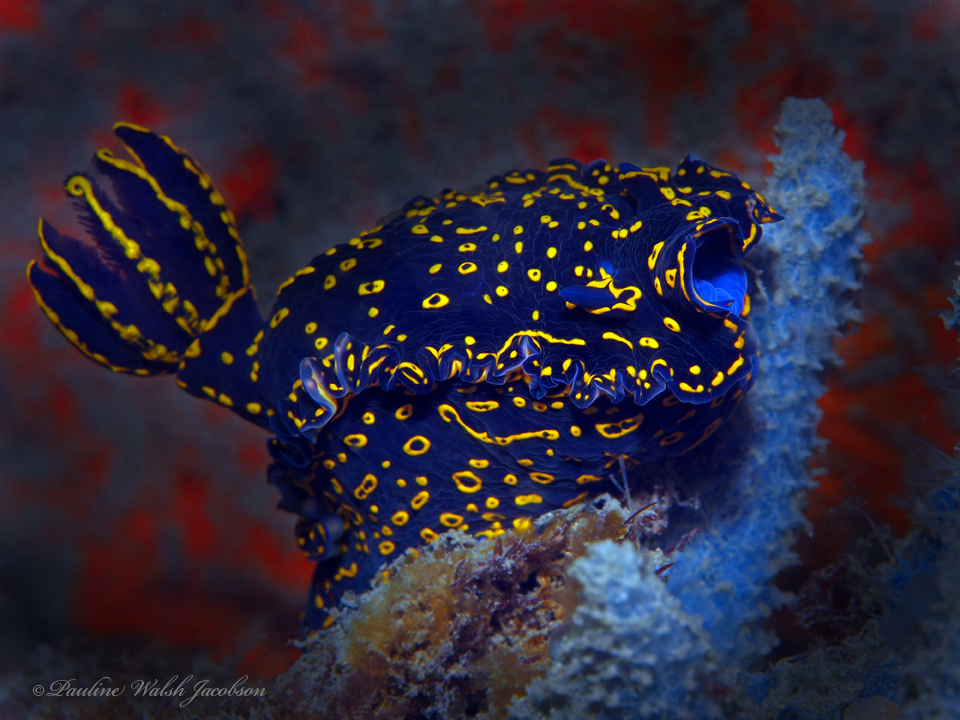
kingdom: Animalia
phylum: Mollusca
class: Gastropoda
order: Nudibranchia
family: Chromodorididae
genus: Felimare
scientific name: Felimare picta
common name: Giant doris
